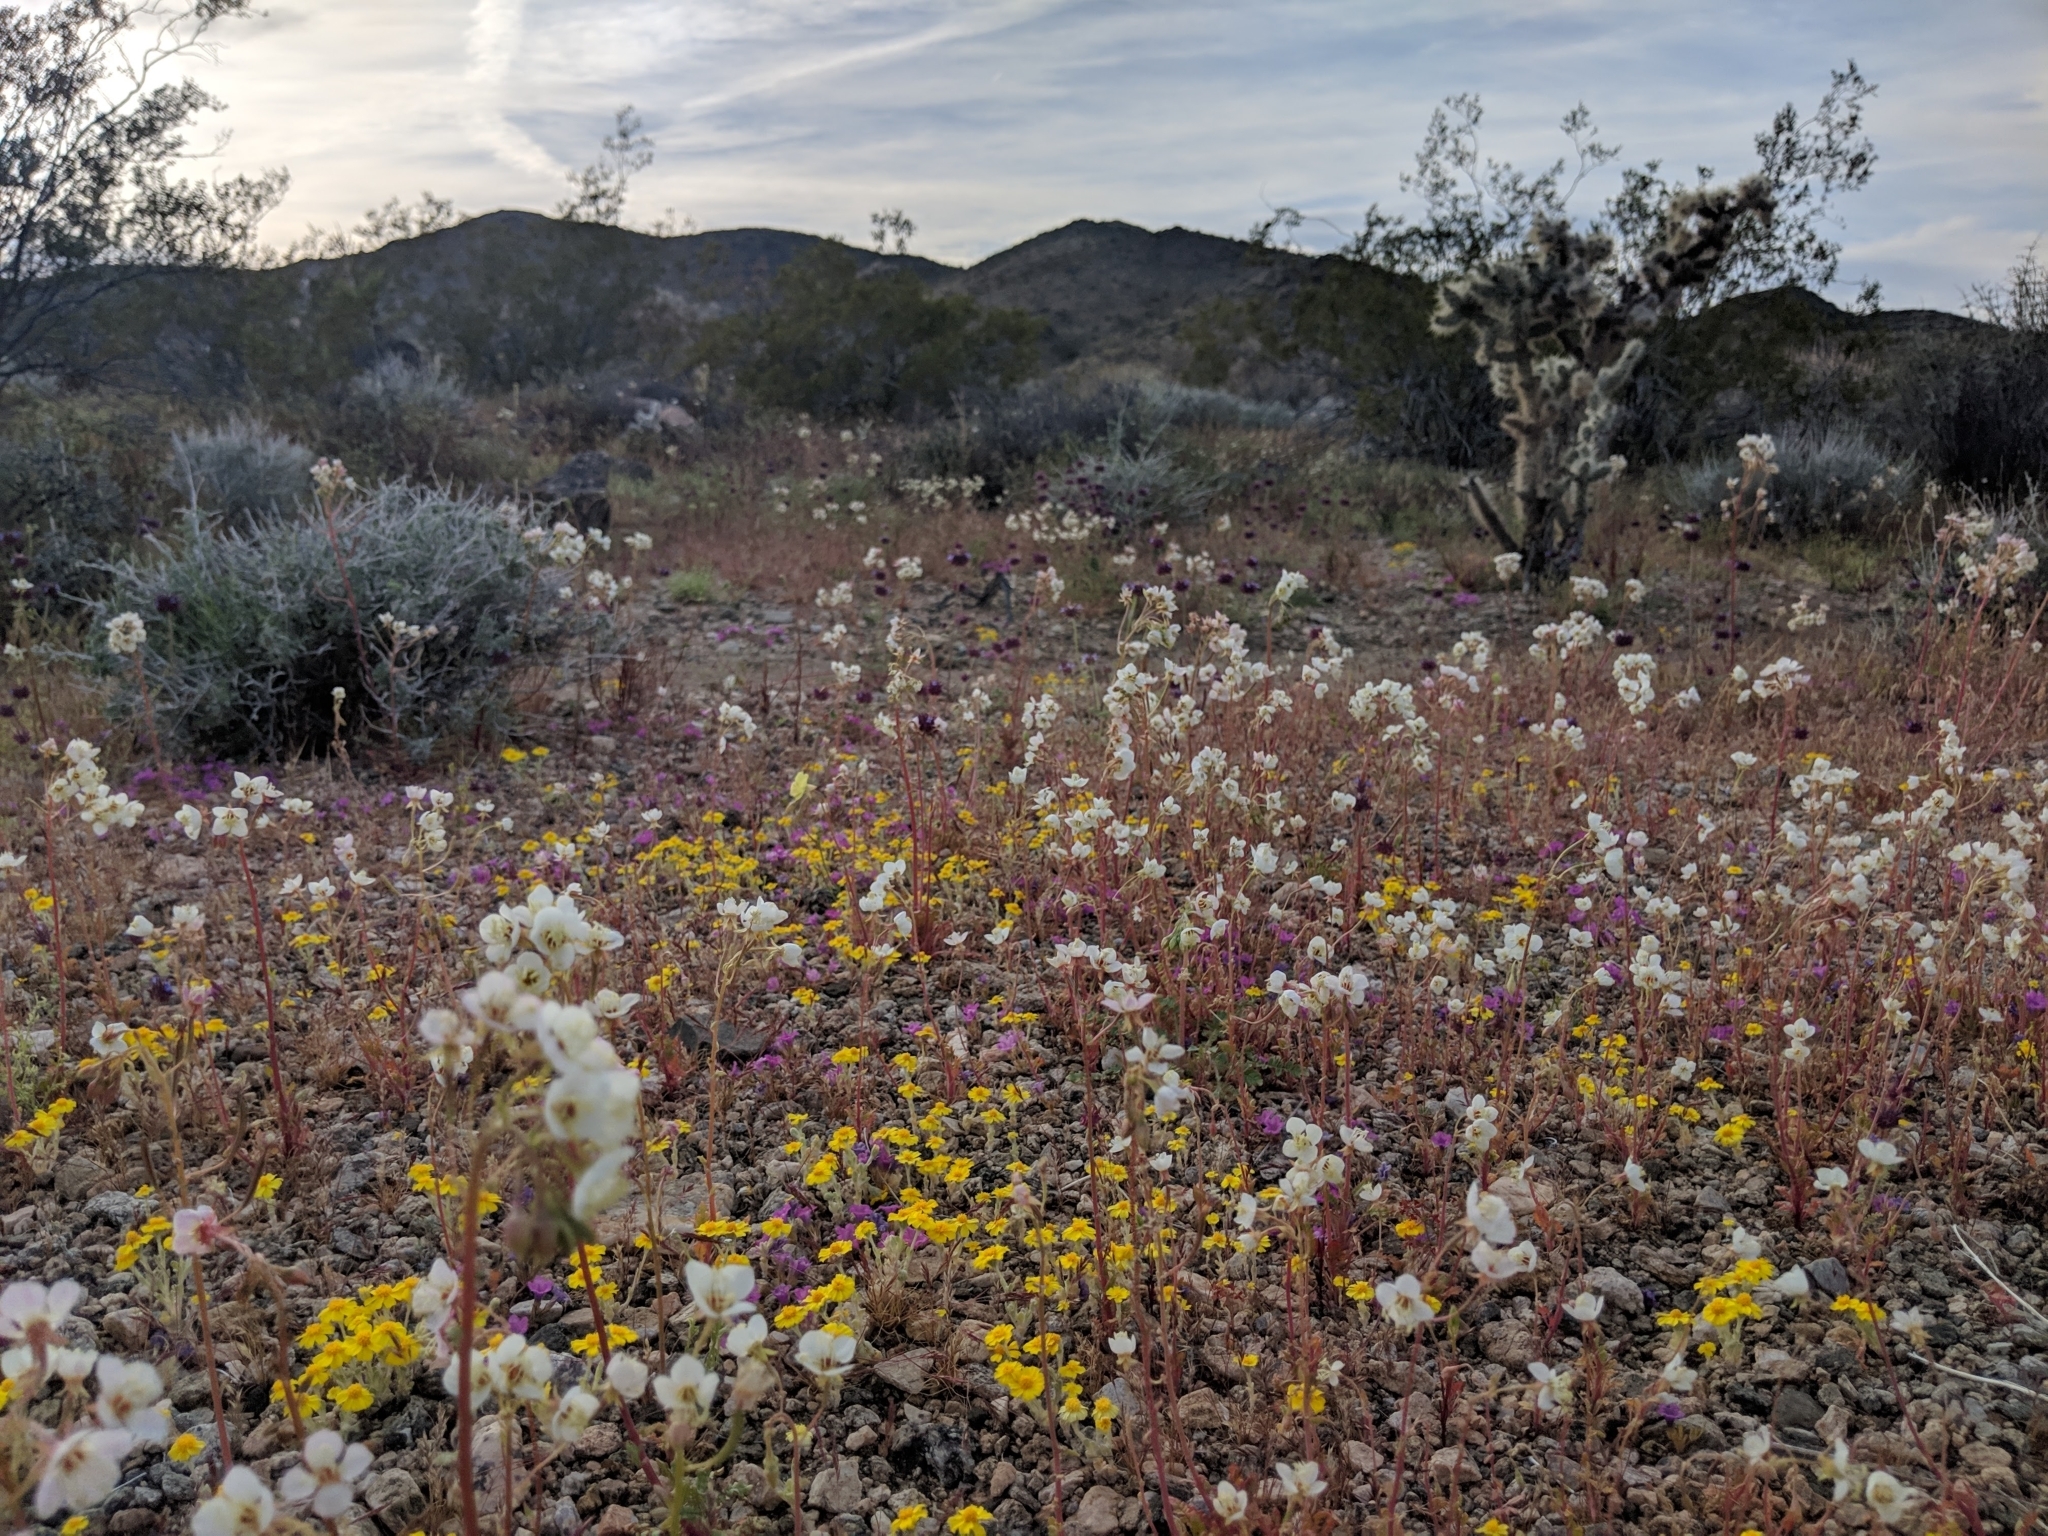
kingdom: Plantae
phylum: Tracheophyta
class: Magnoliopsida
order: Myrtales
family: Onagraceae
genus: Chylismia
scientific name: Chylismia claviformis
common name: Browneyes
